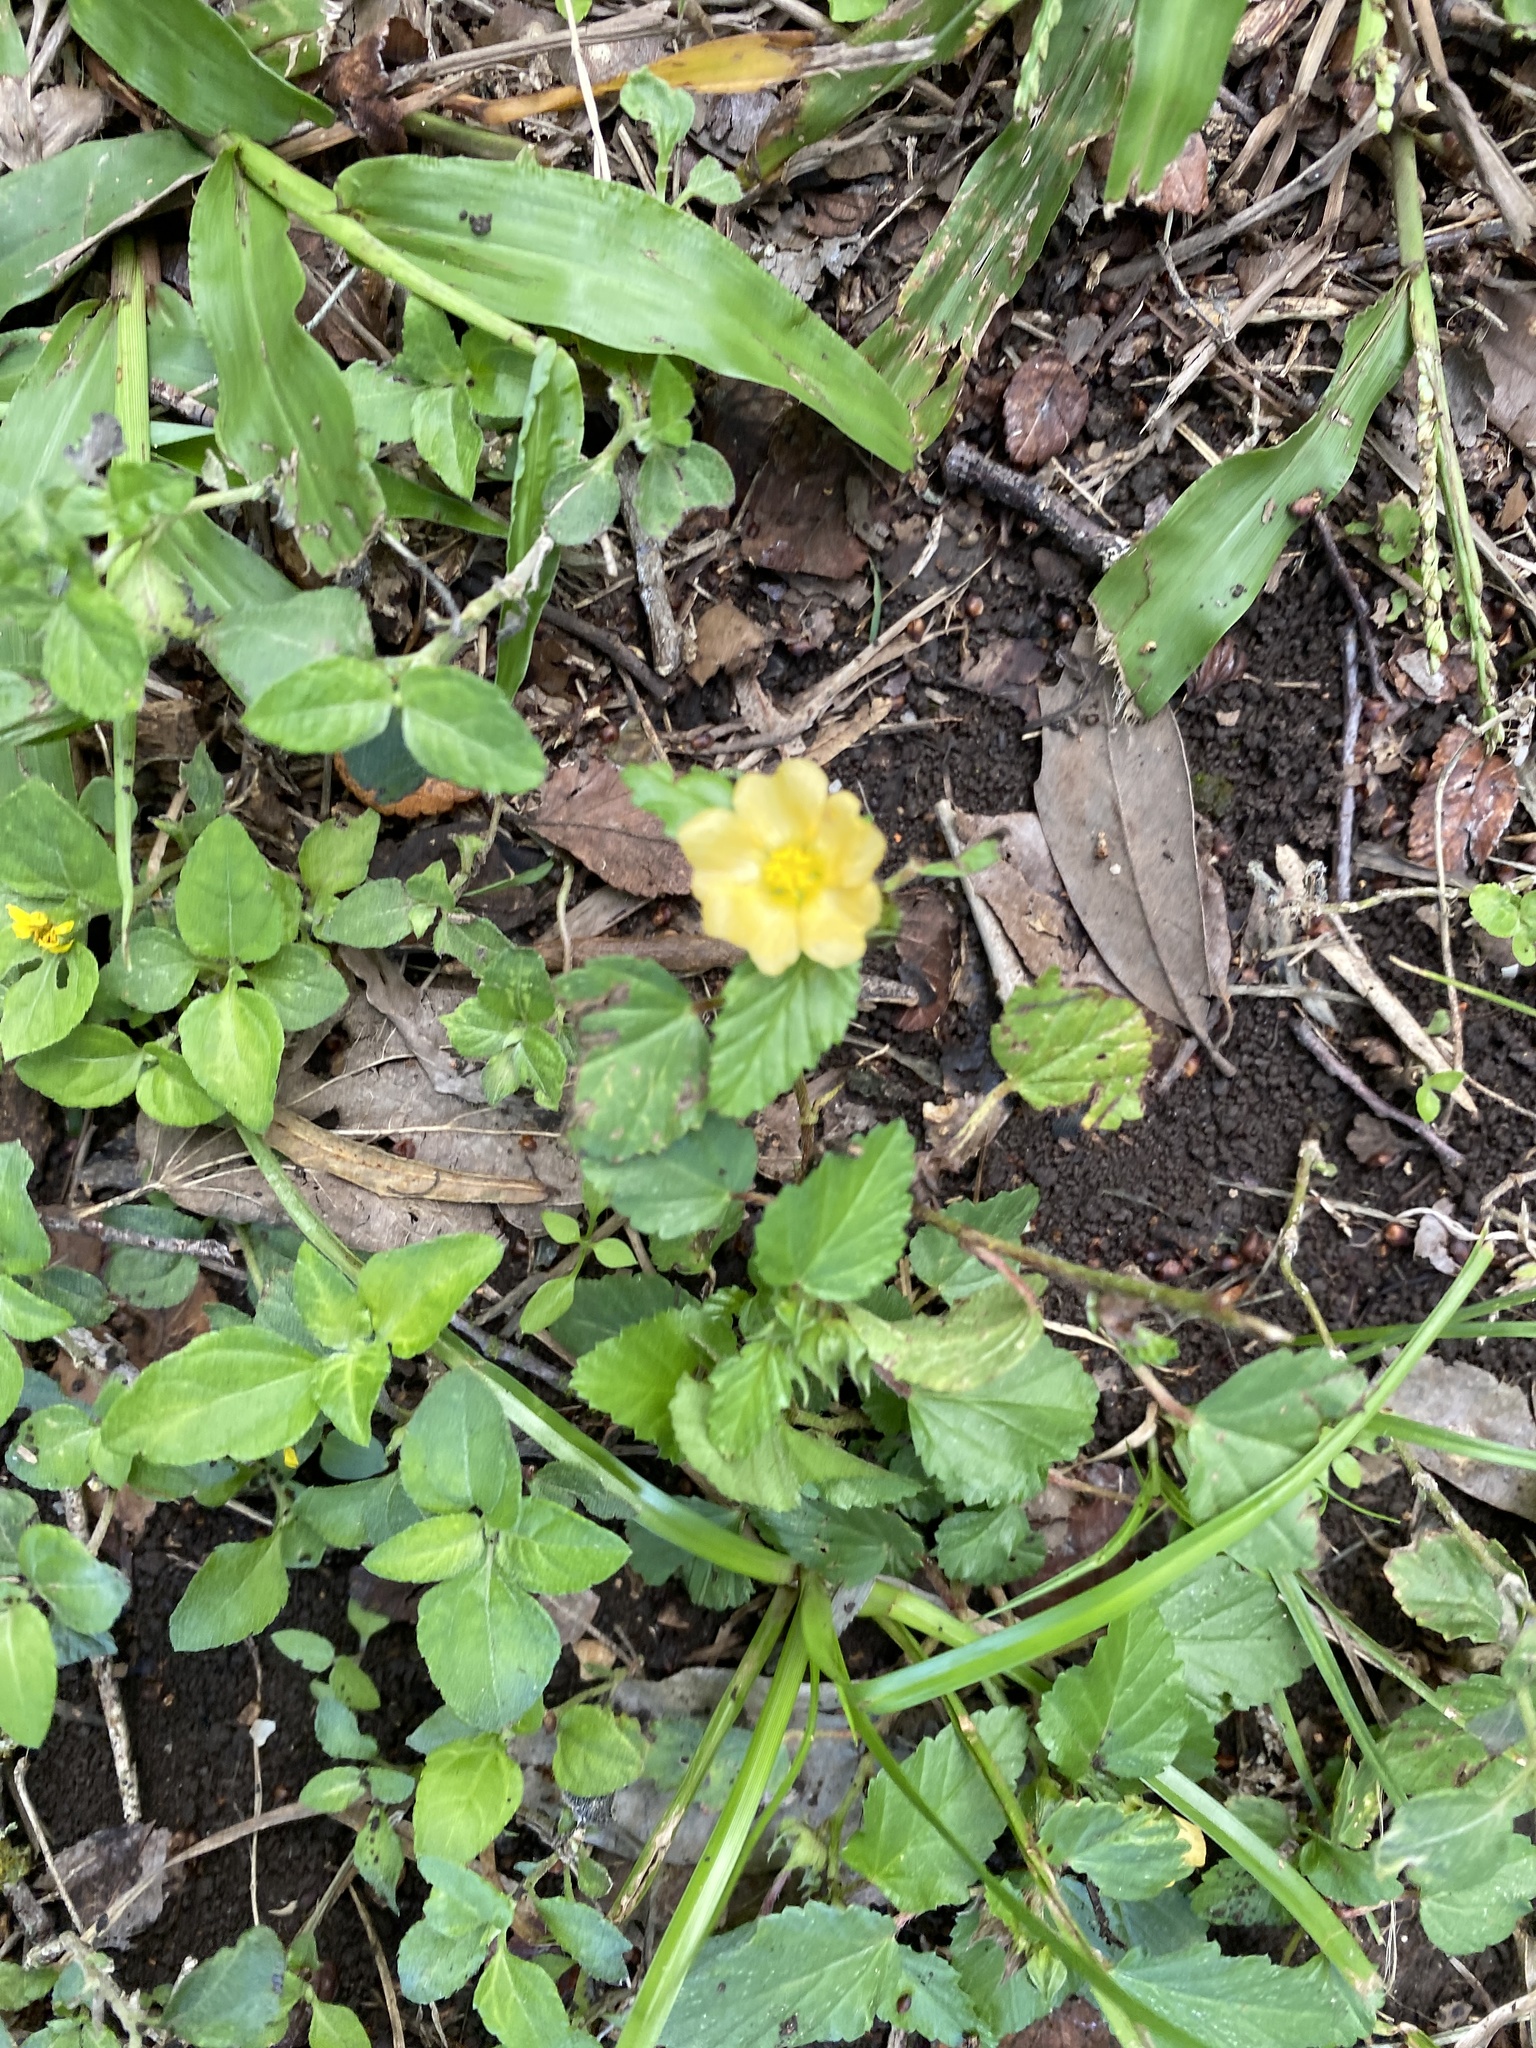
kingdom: Plantae
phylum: Tracheophyta
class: Magnoliopsida
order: Malvales
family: Malvaceae
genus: Malvastrum
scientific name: Malvastrum coromandelianum
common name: Threelobe false mallow
